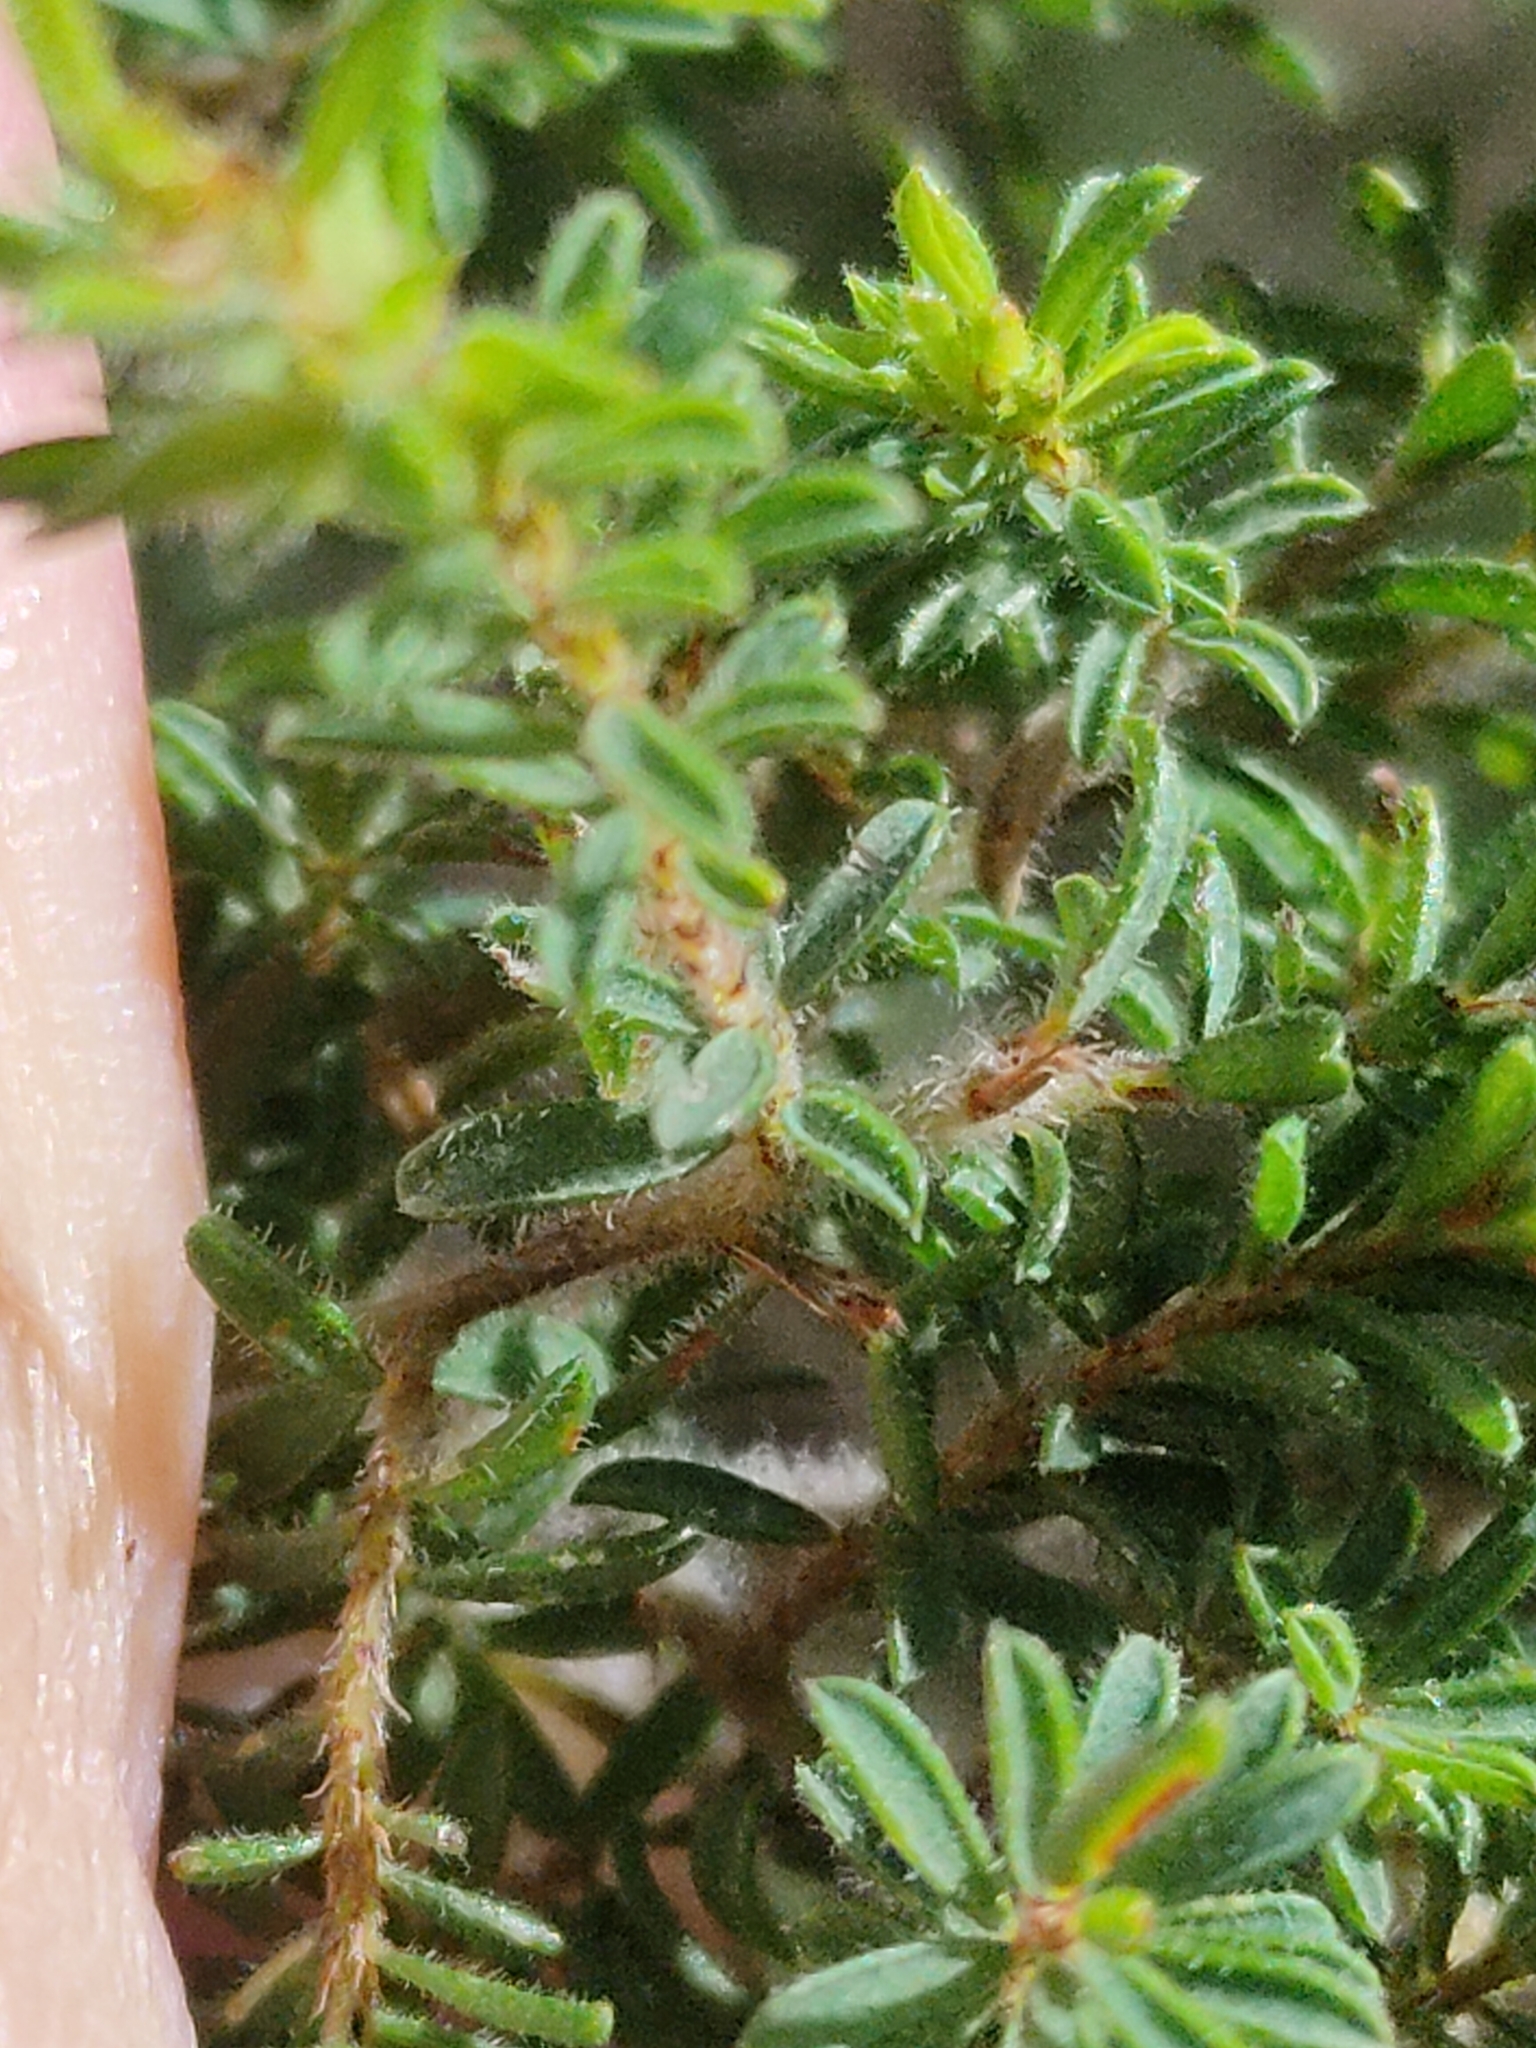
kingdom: Plantae
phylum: Tracheophyta
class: Magnoliopsida
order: Fabales
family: Fabaceae
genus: Pultenaea
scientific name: Pultenaea villosa
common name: Bronze bush-pea
